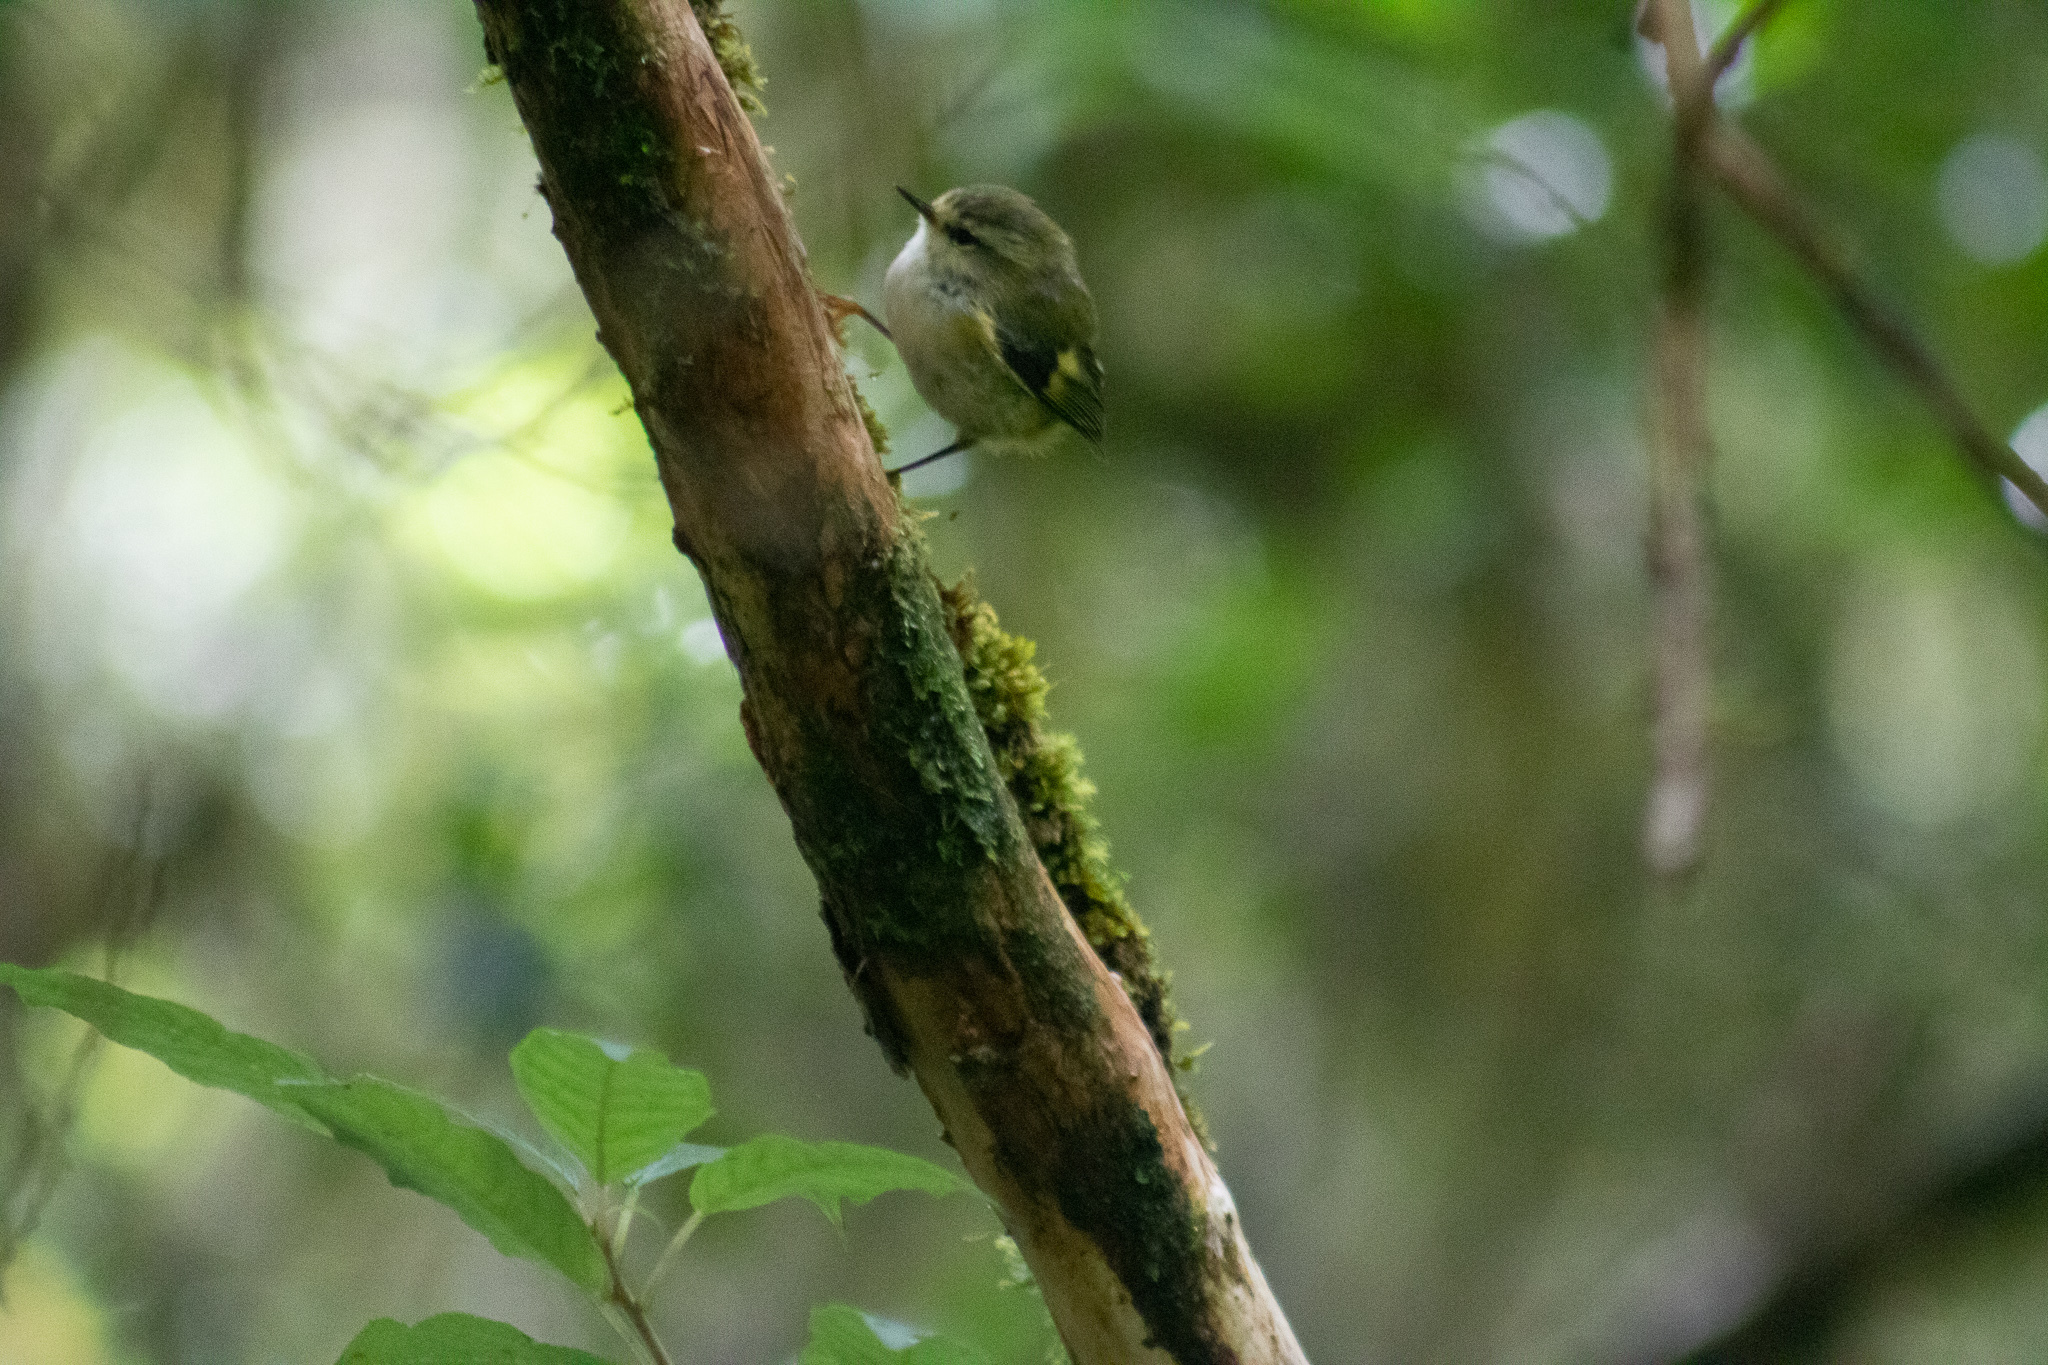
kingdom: Animalia
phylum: Chordata
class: Aves
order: Passeriformes
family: Acanthisittidae
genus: Acanthisitta
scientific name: Acanthisitta chloris
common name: Rifleman
